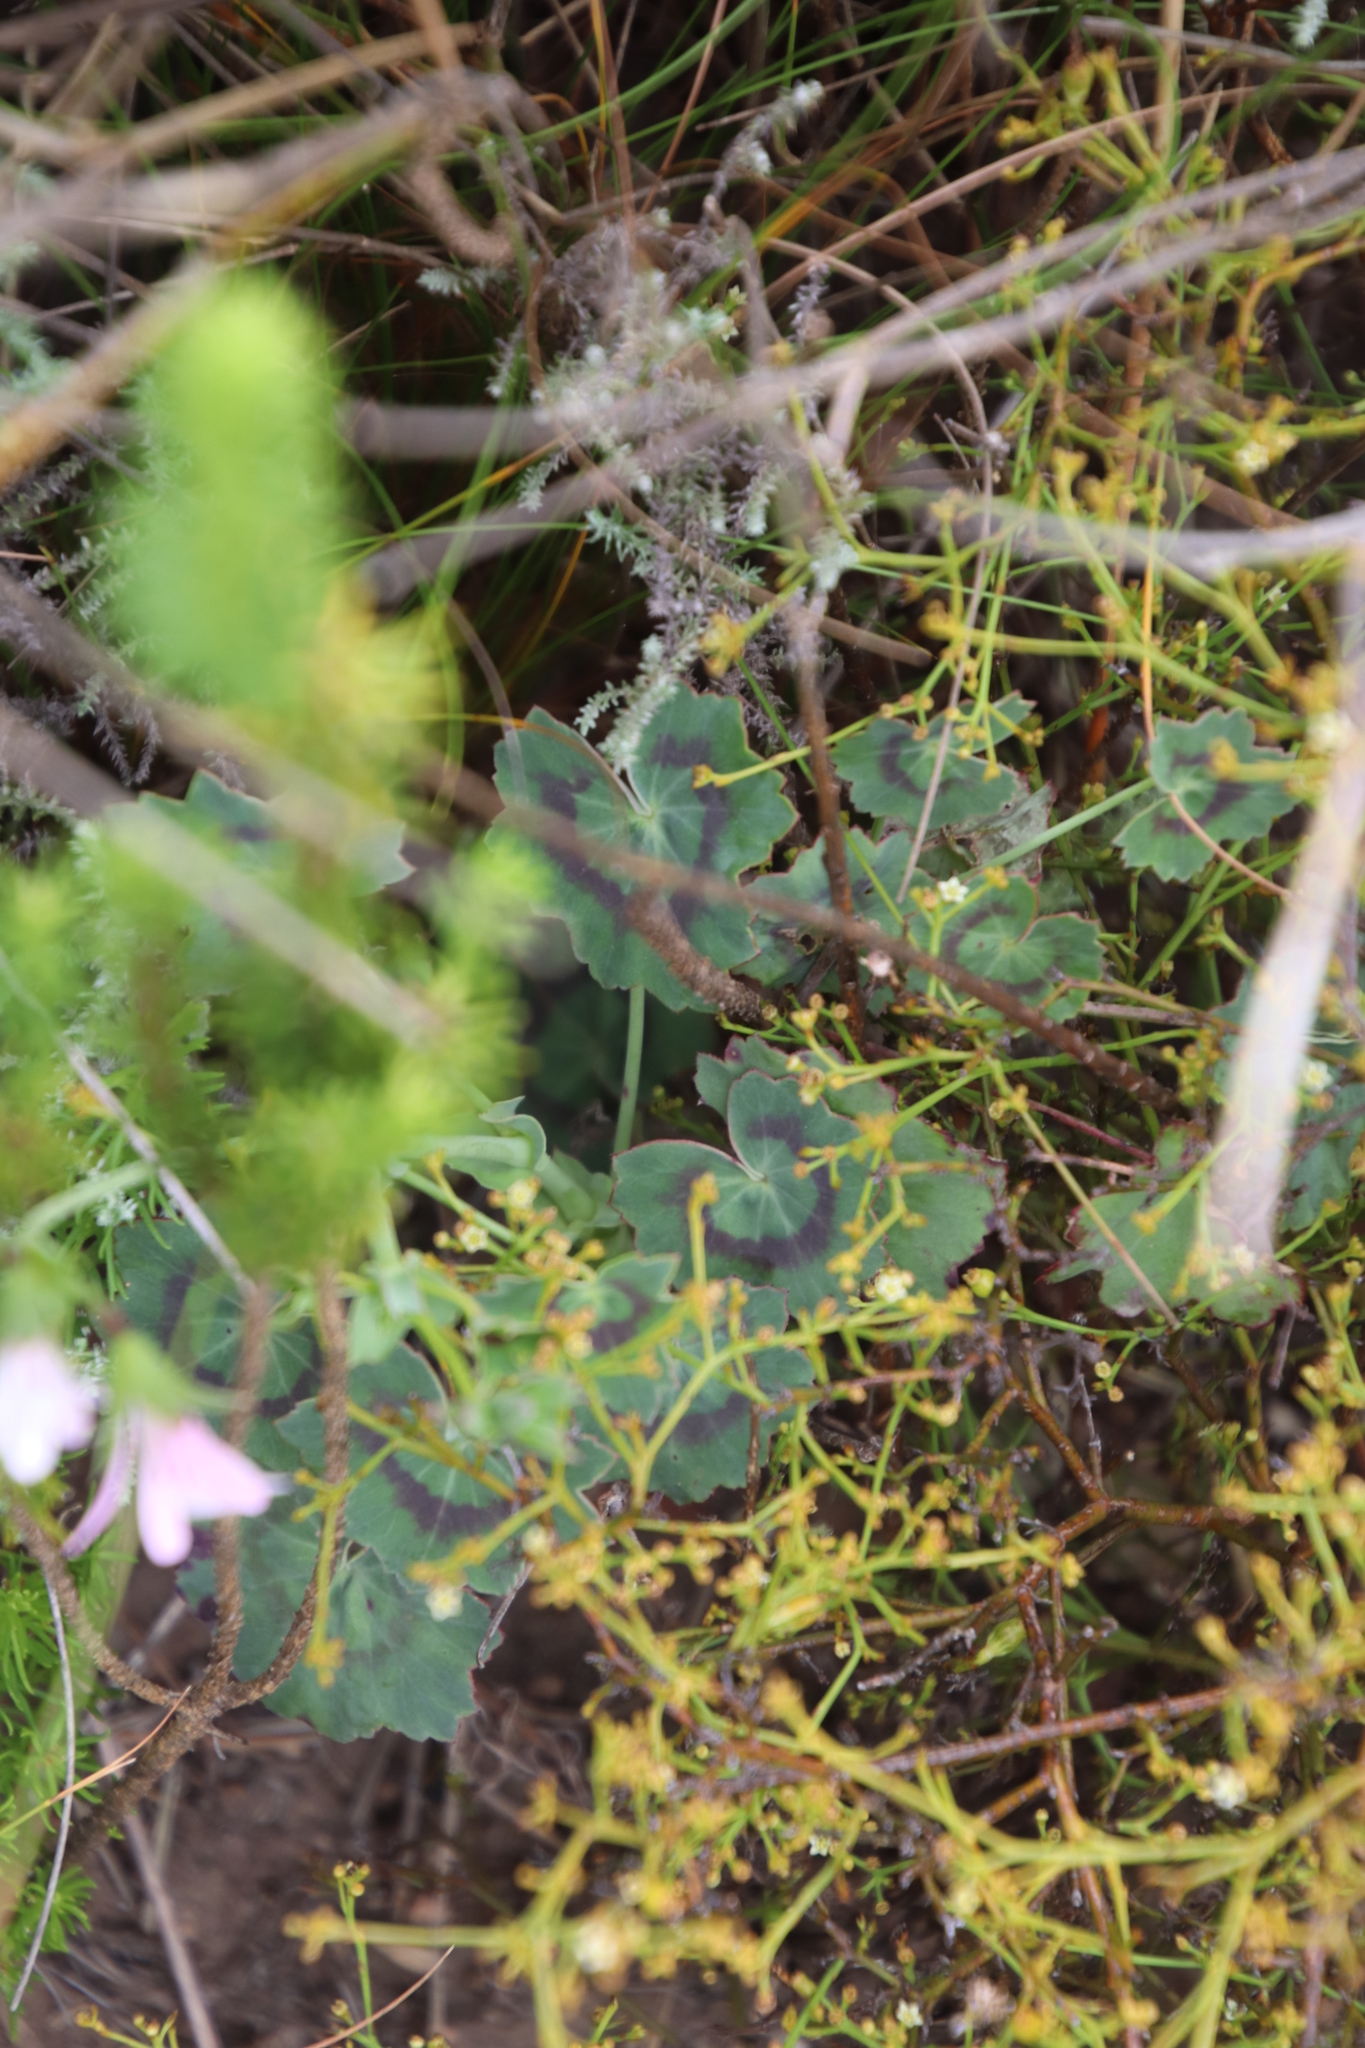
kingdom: Plantae
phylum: Tracheophyta
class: Magnoliopsida
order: Geraniales
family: Geraniaceae
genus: Pelargonium
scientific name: Pelargonium tabulare
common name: Table mountain pelargonium
